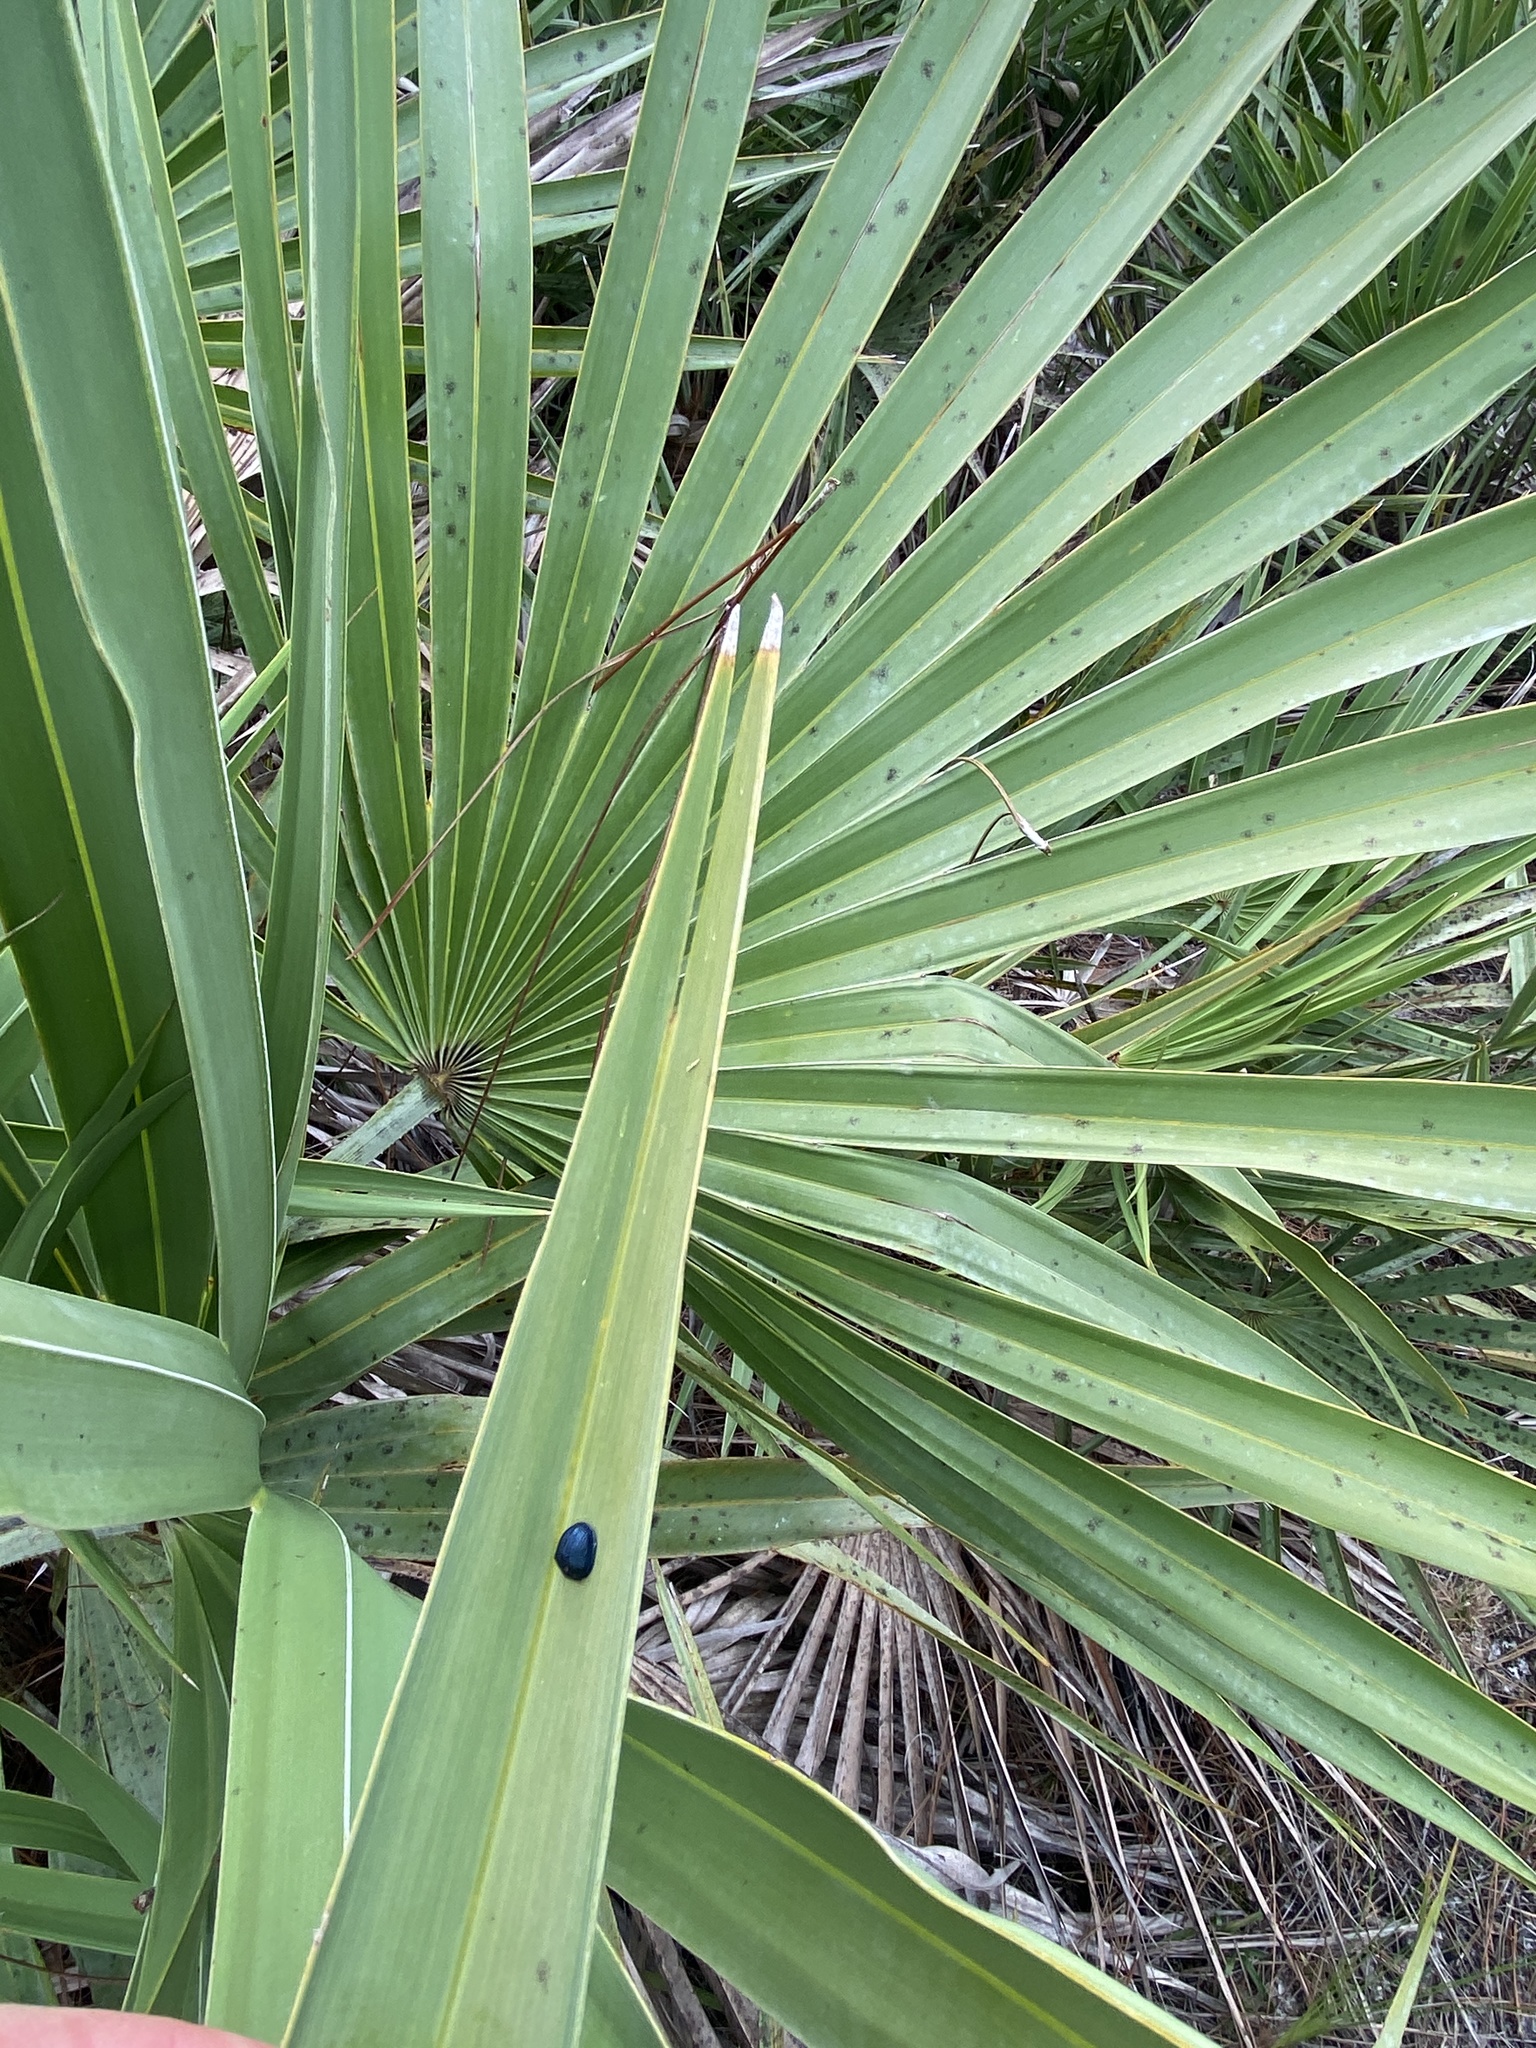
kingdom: Animalia
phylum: Arthropoda
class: Insecta
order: Coleoptera
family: Chrysomelidae
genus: Hemisphaerota
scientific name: Hemisphaerota cyanea
